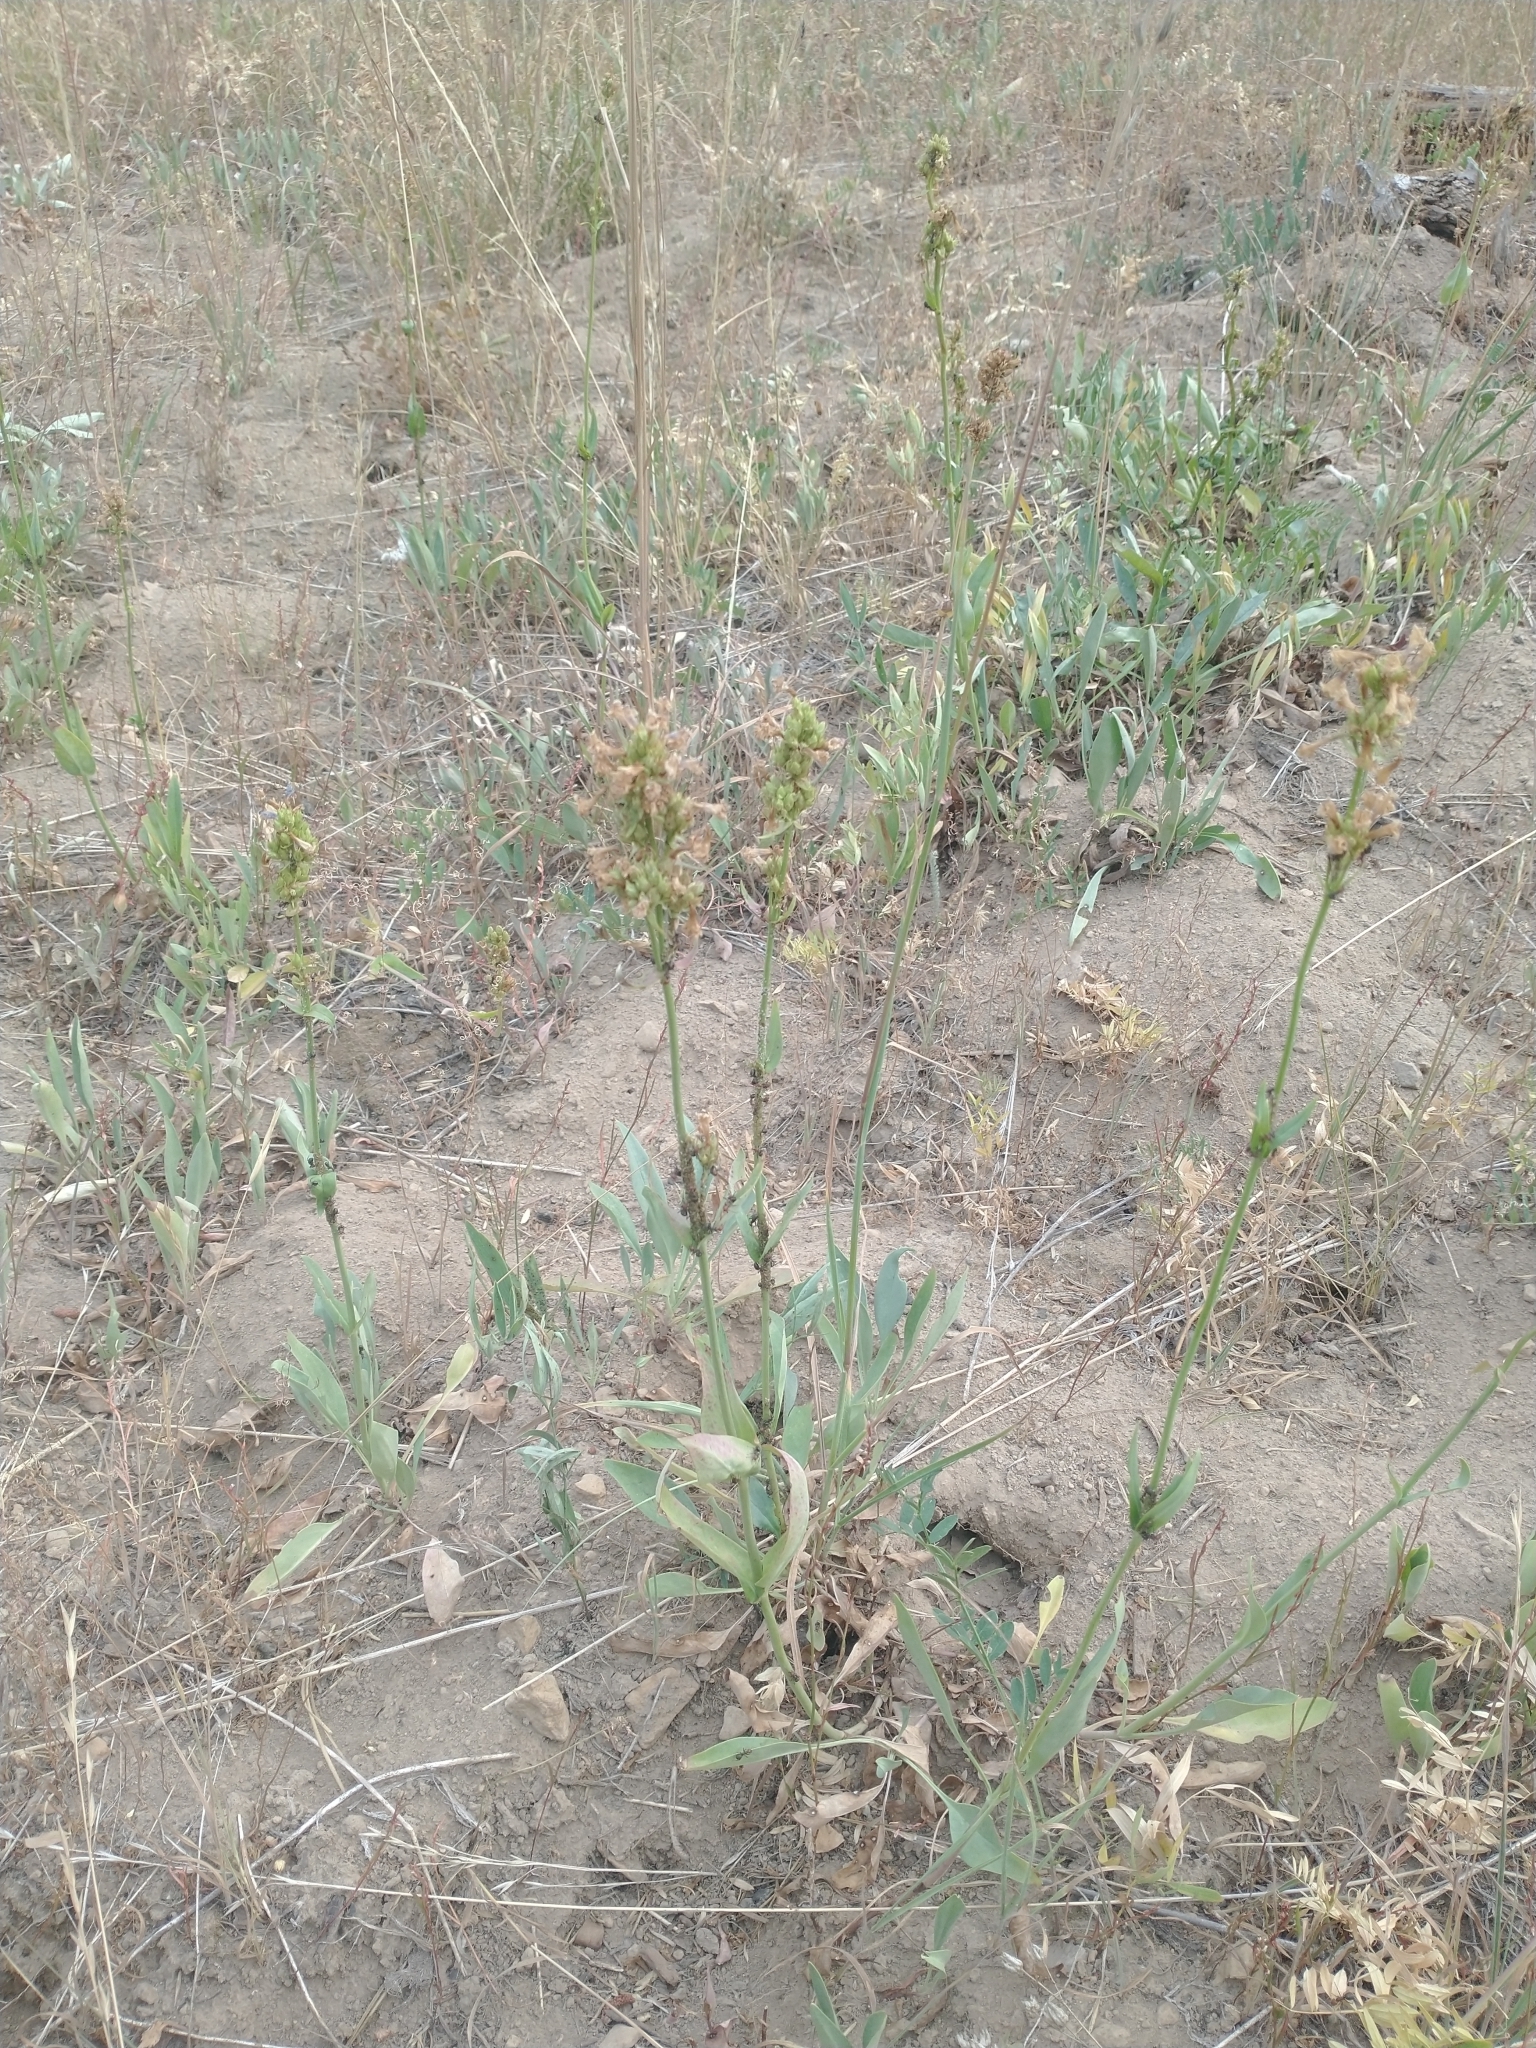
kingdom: Plantae
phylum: Tracheophyta
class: Magnoliopsida
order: Lamiales
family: Plantaginaceae
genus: Penstemon
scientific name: Penstemon euglaucus
